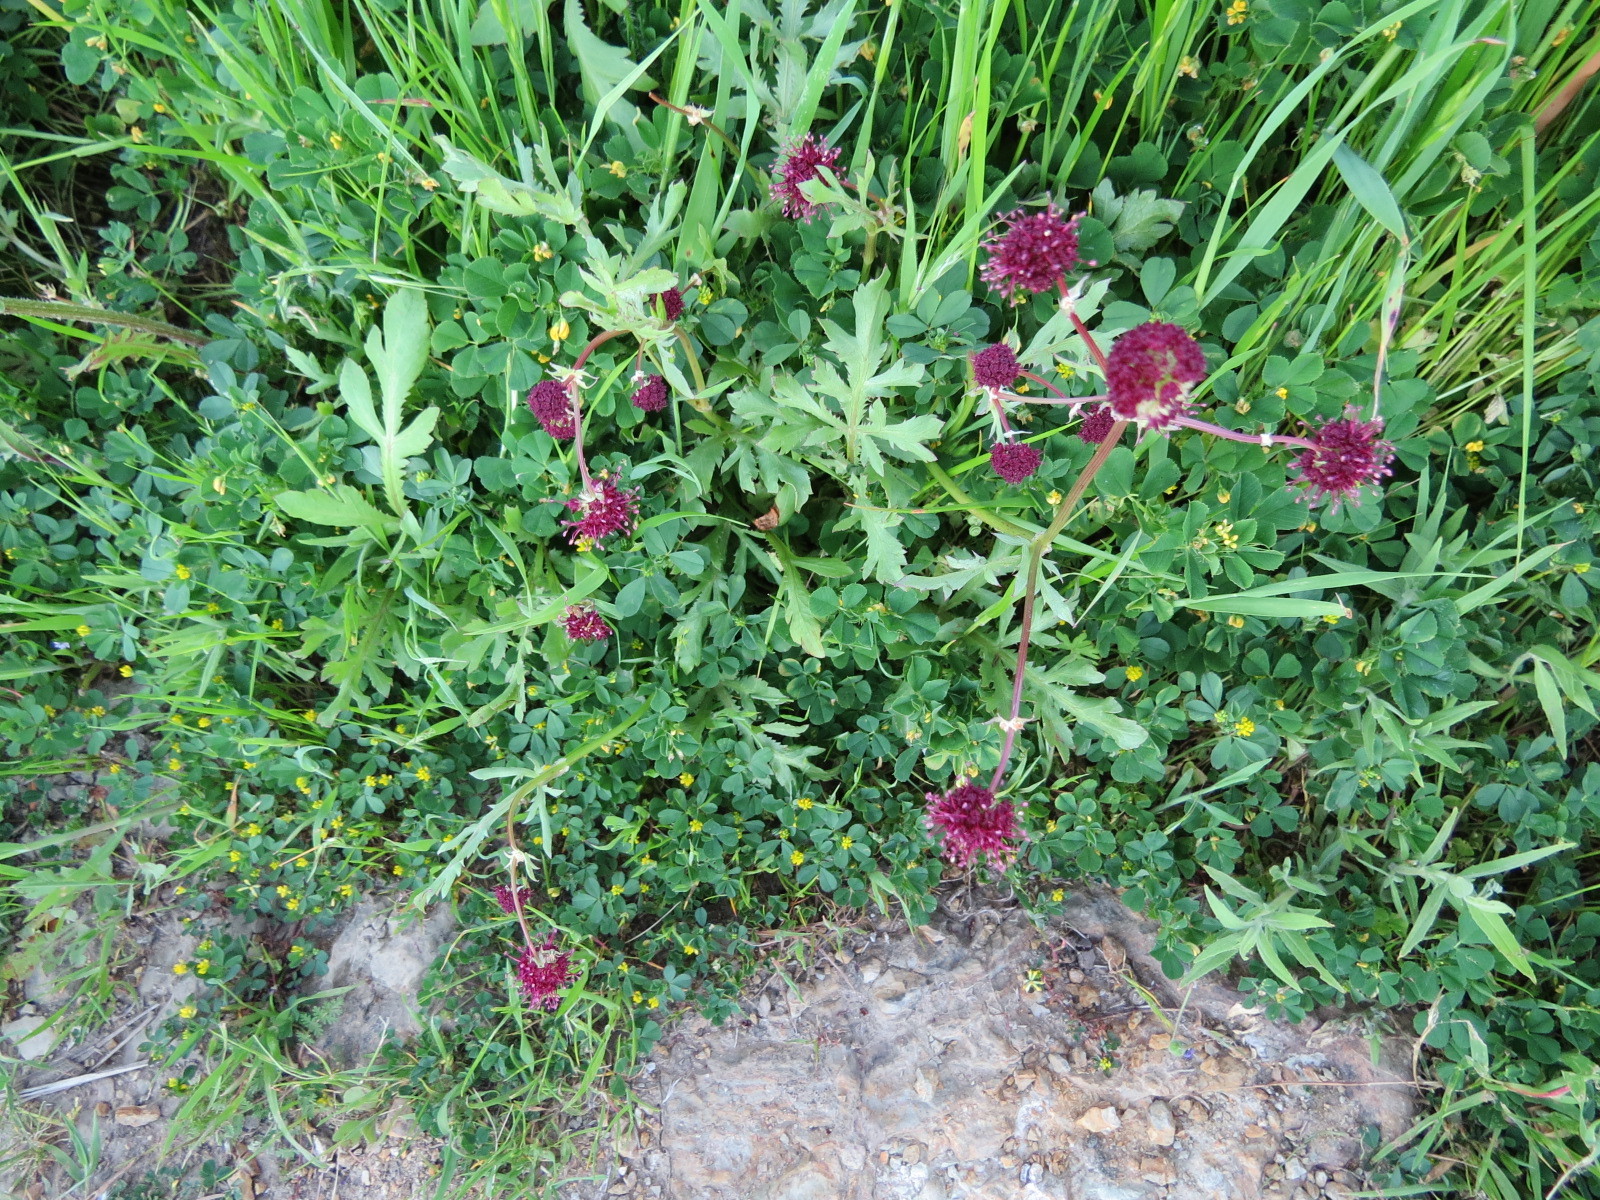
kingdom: Plantae
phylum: Tracheophyta
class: Magnoliopsida
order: Apiales
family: Apiaceae
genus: Sanicula
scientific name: Sanicula bipinnatifida
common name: Shoe-buttons
